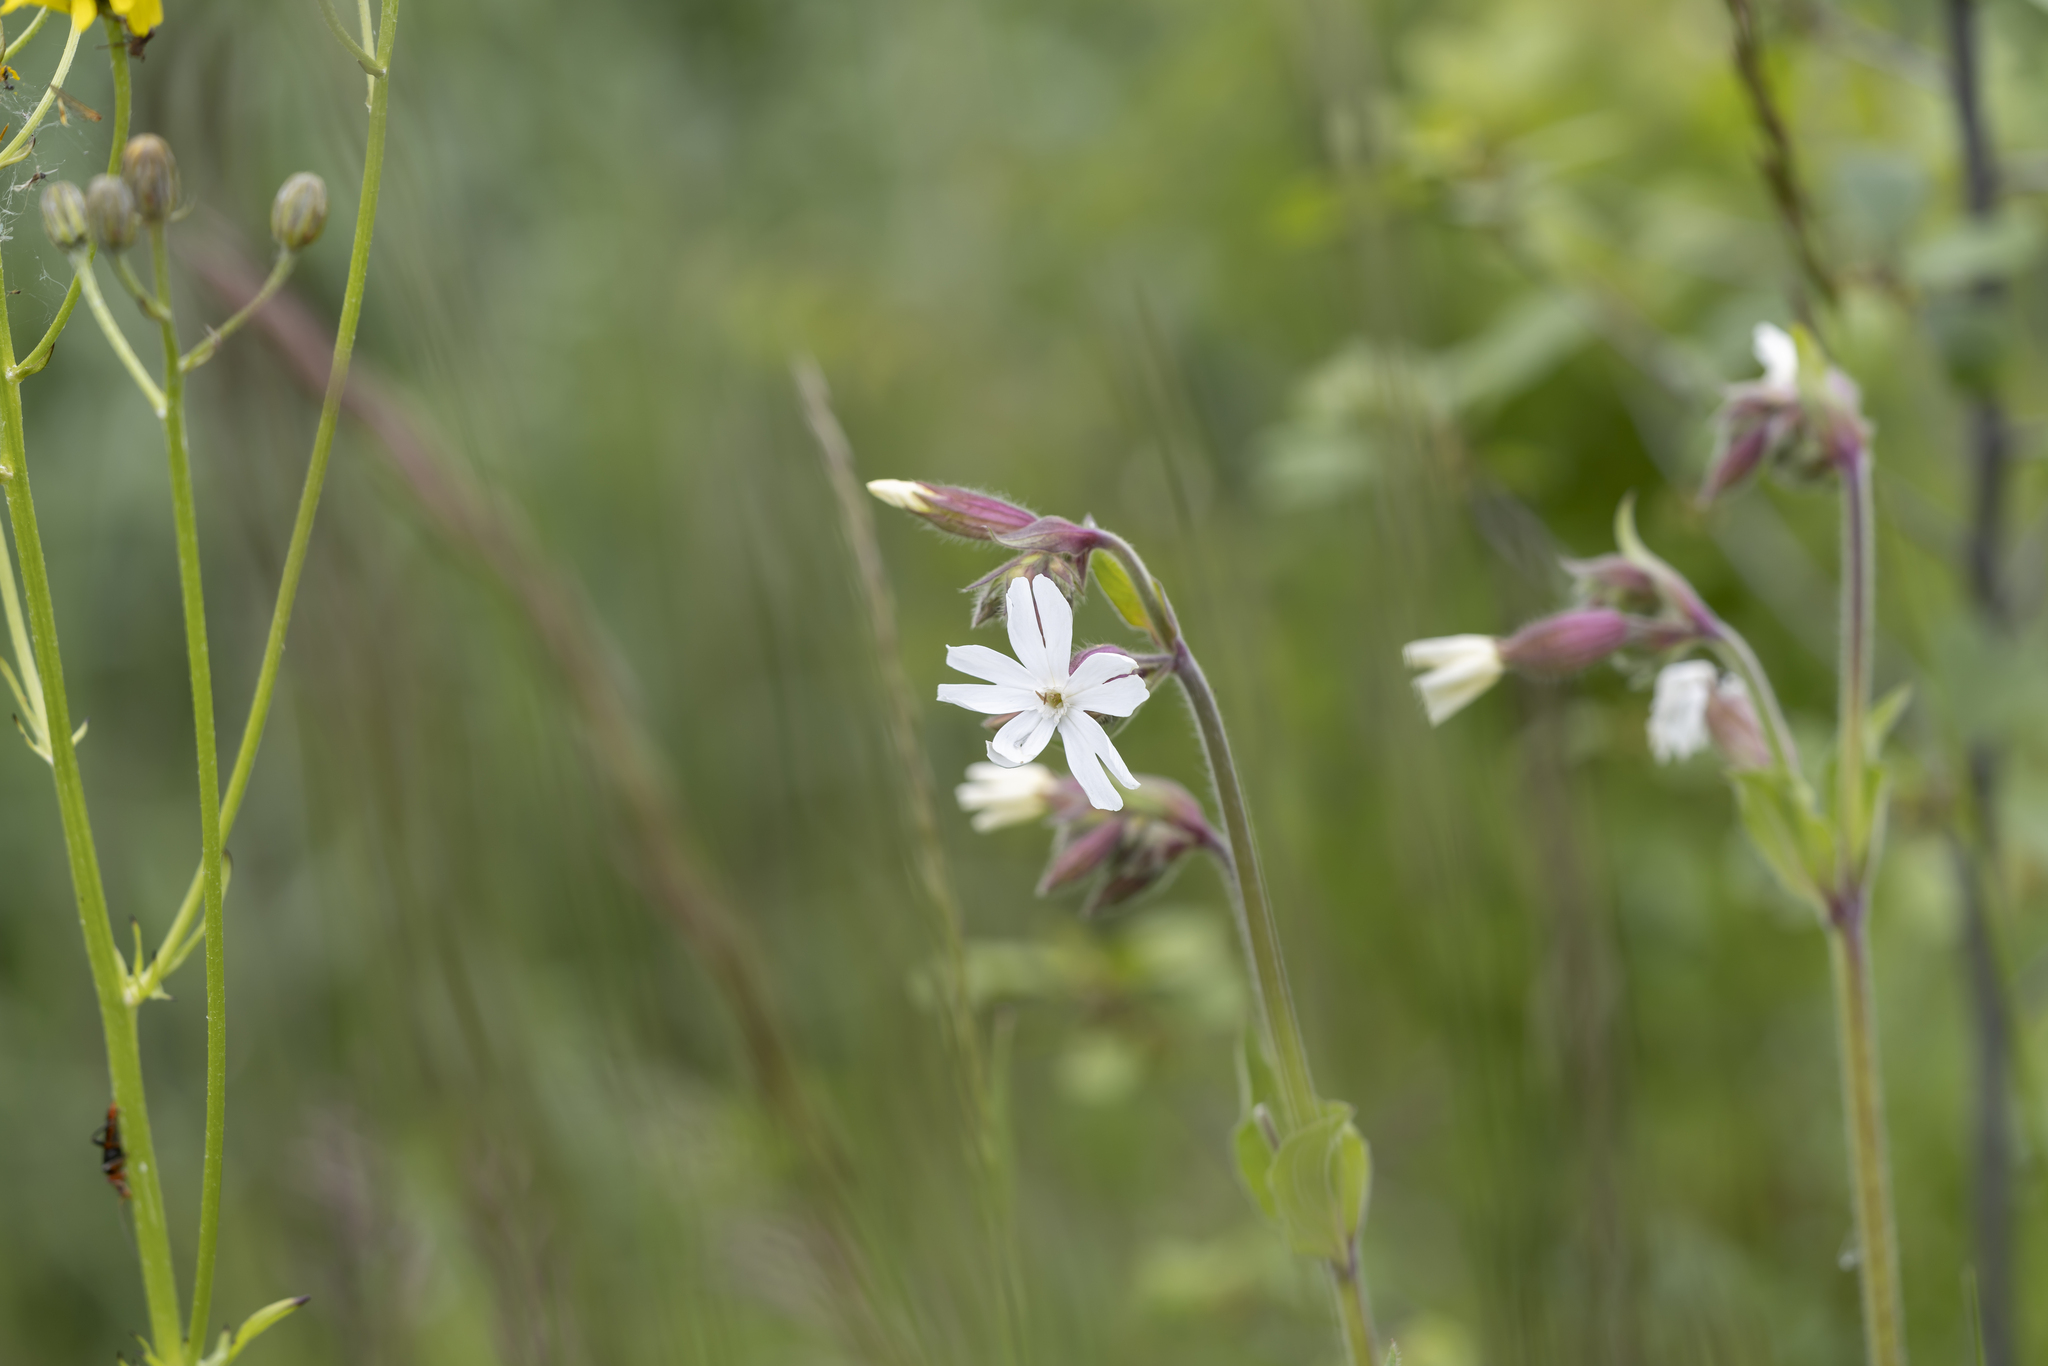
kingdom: Plantae
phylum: Tracheophyta
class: Magnoliopsida
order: Caryophyllales
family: Caryophyllaceae
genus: Silene
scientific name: Silene latifolia
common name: White campion
